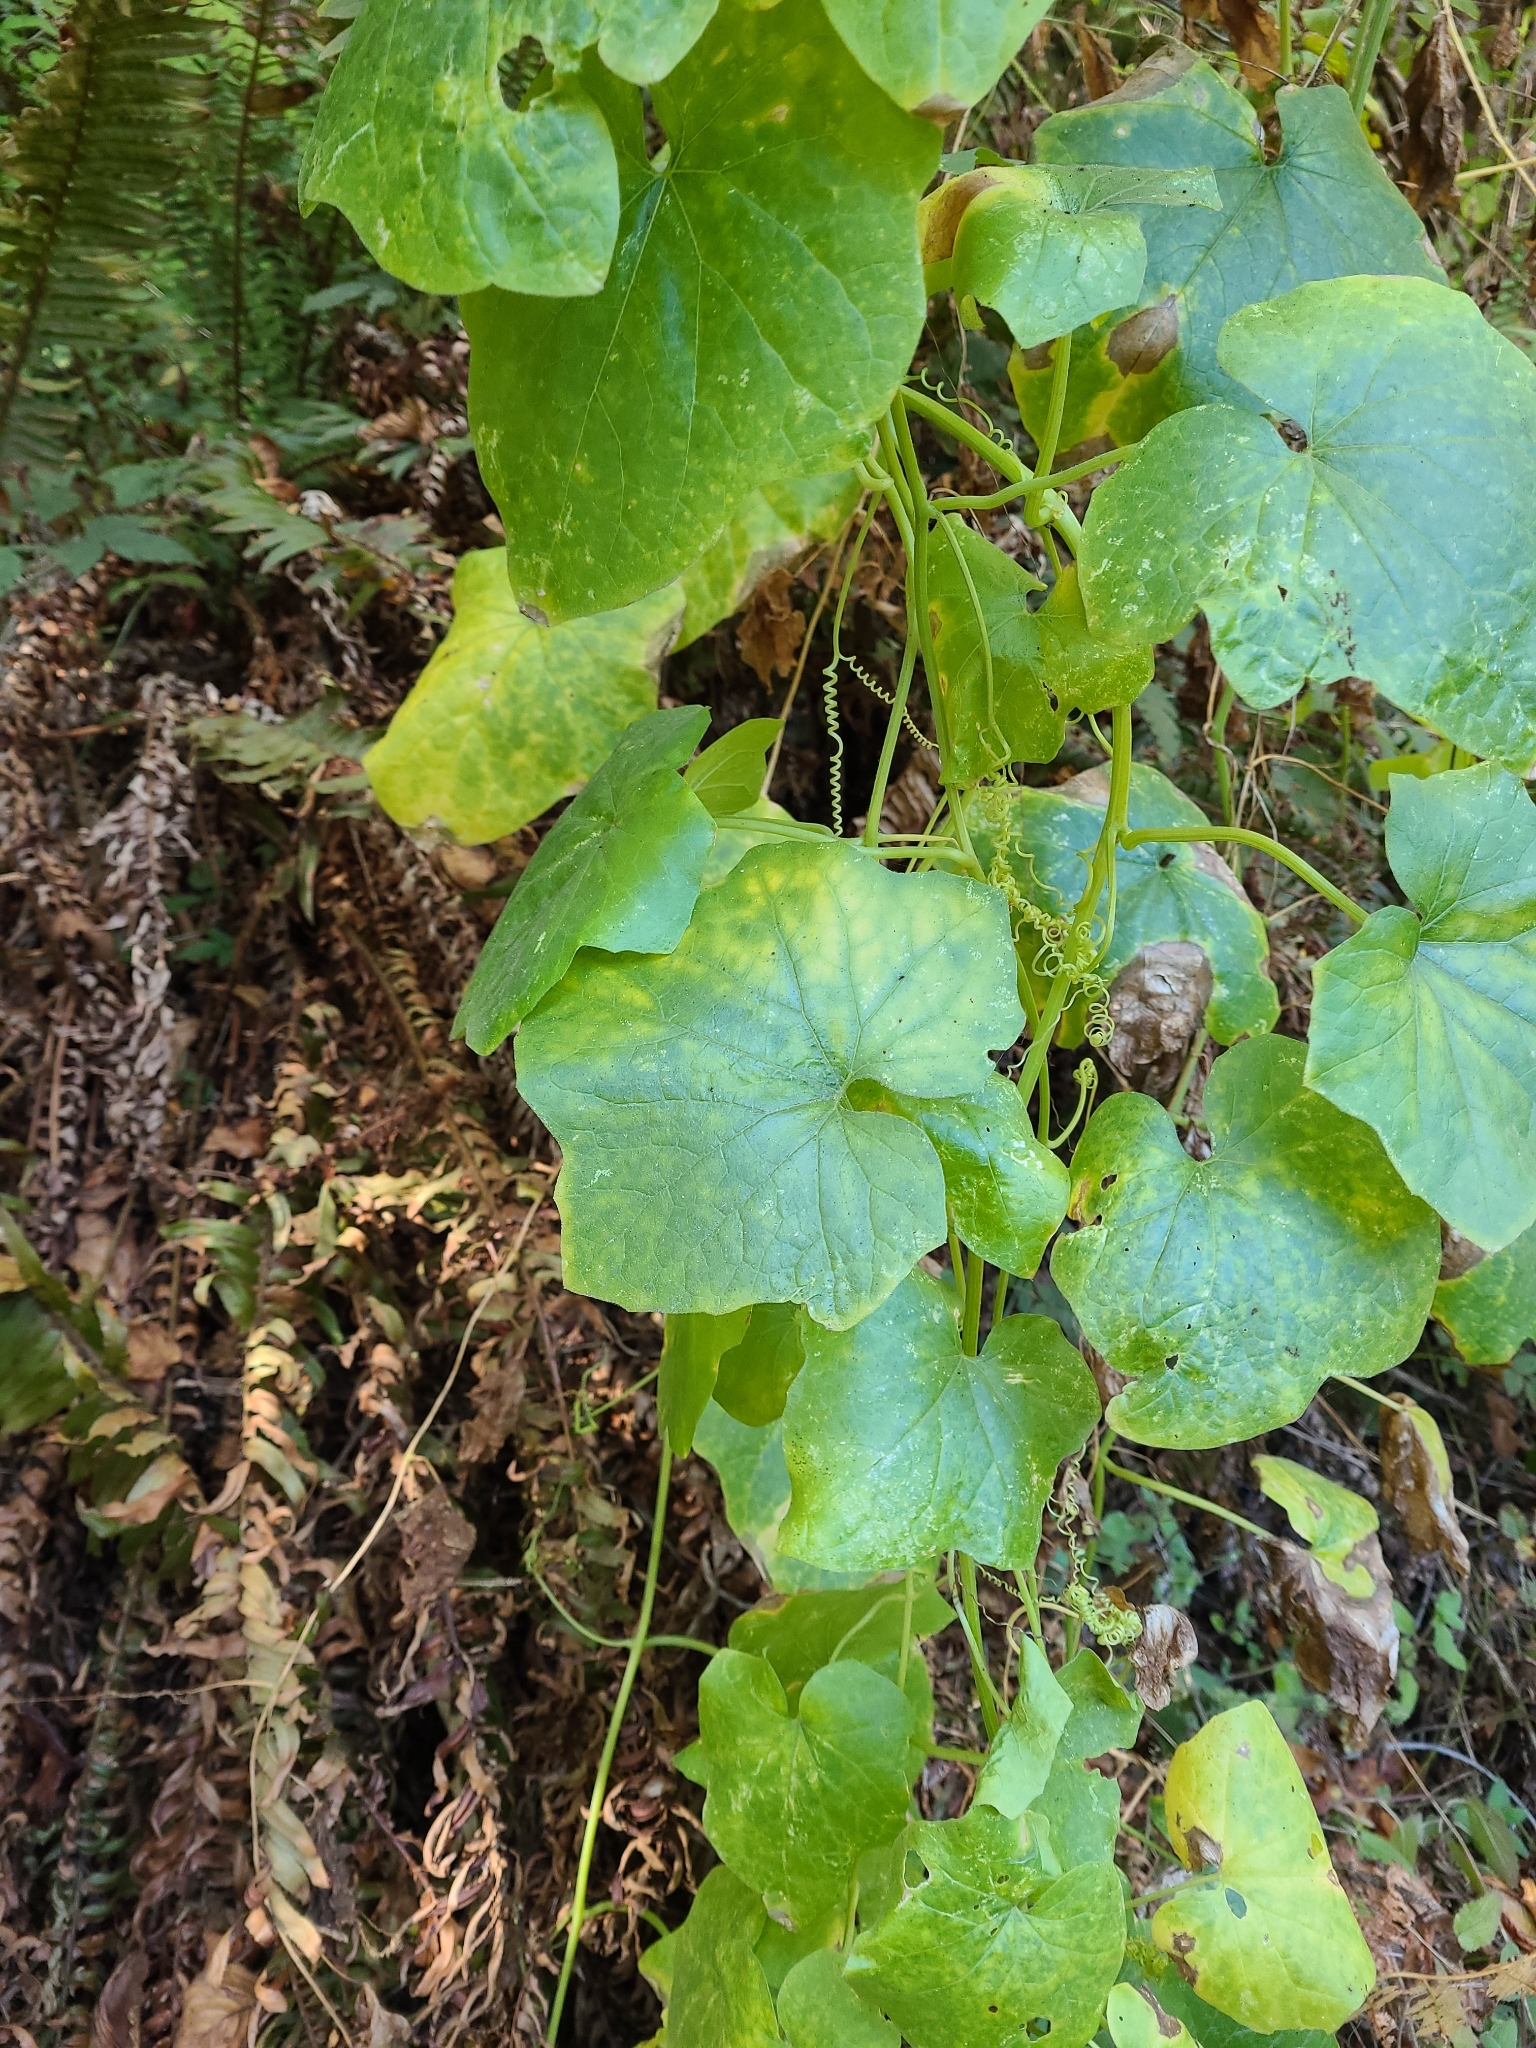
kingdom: Plantae
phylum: Tracheophyta
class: Magnoliopsida
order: Cucurbitales
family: Cucurbitaceae
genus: Marah
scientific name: Marah oregana
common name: Coastal manroot
